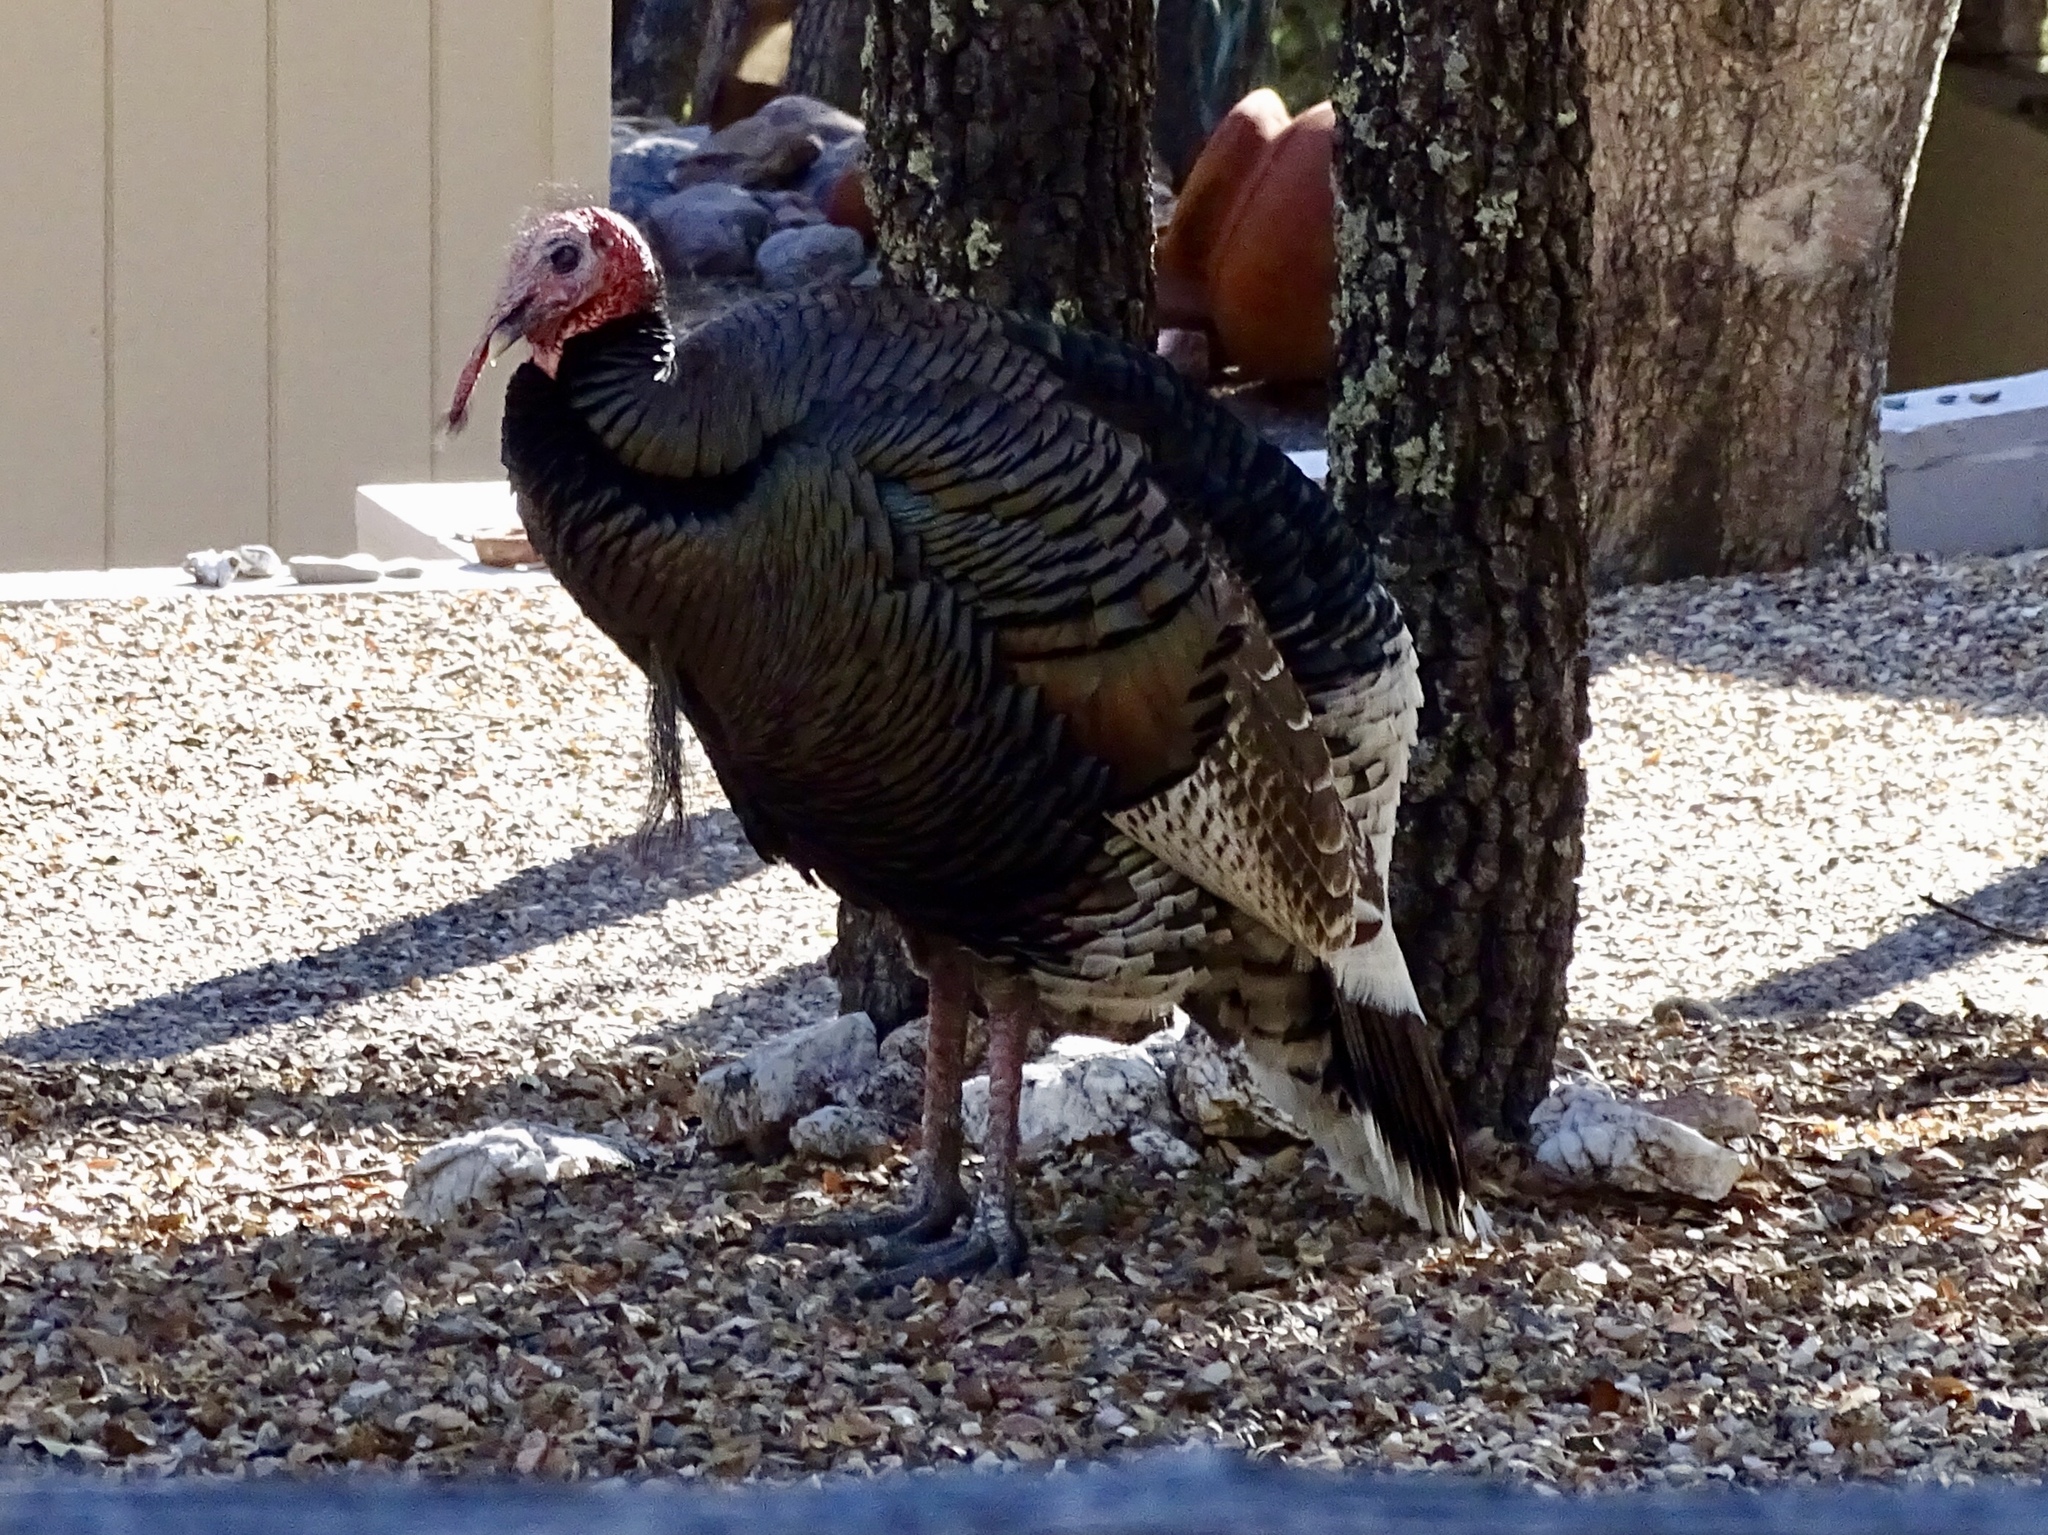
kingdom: Animalia
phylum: Chordata
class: Aves
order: Galliformes
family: Phasianidae
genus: Meleagris
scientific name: Meleagris gallopavo
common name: Wild turkey
